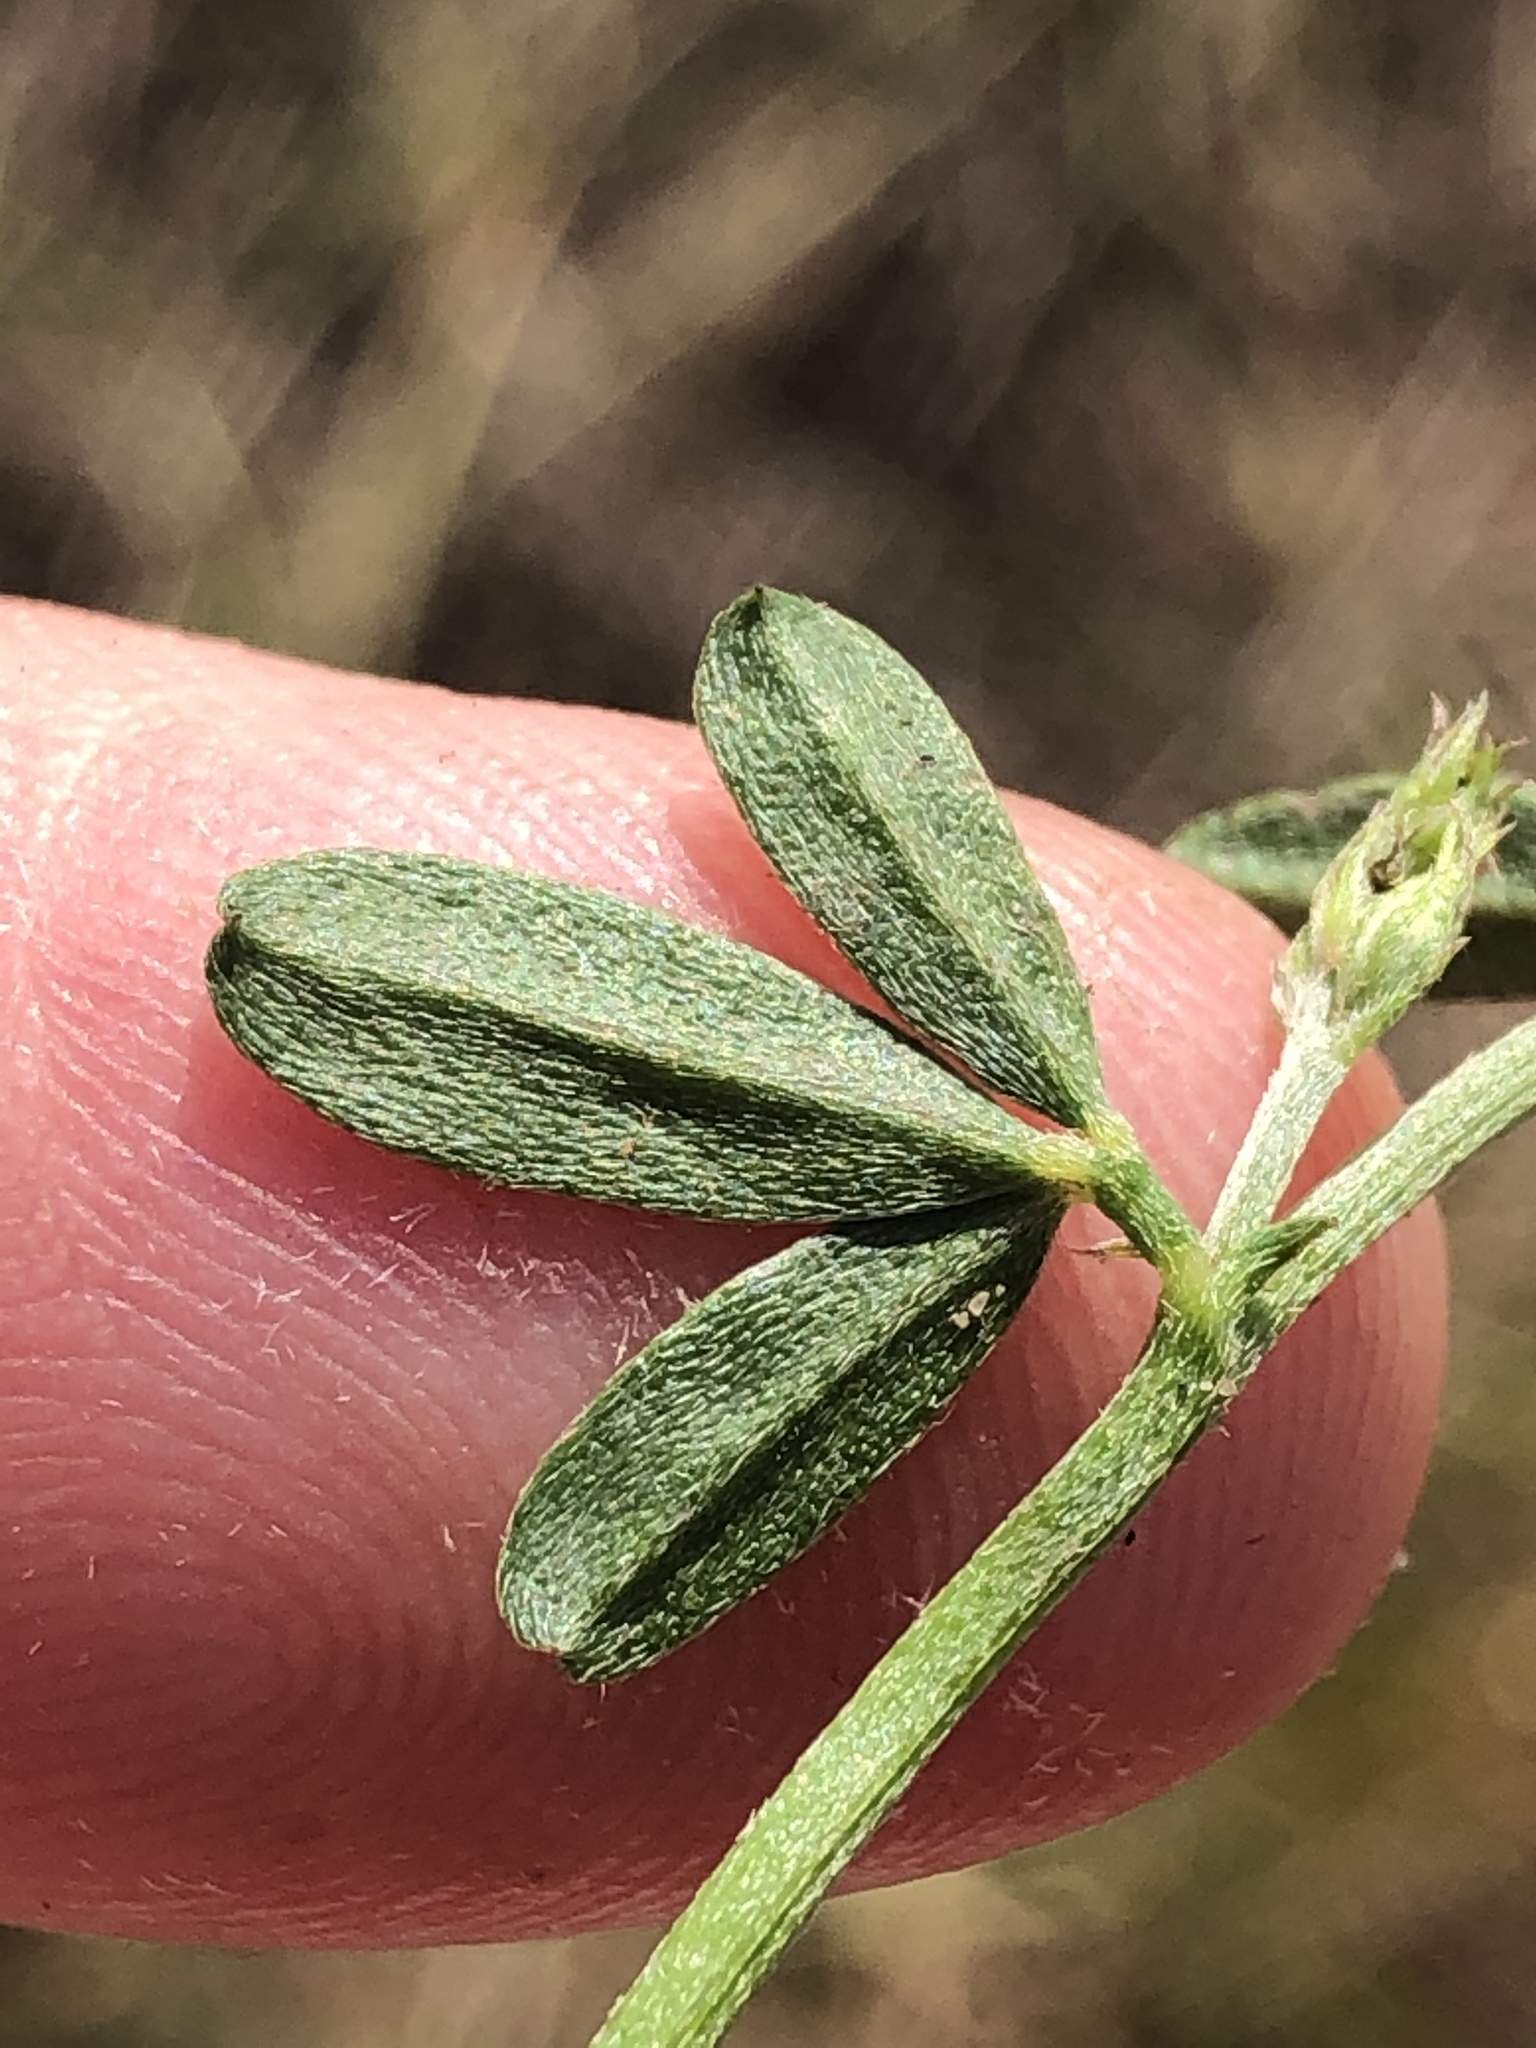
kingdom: Plantae
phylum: Tracheophyta
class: Magnoliopsida
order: Fabales
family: Fabaceae
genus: Indigofera
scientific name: Indigofera priorii
